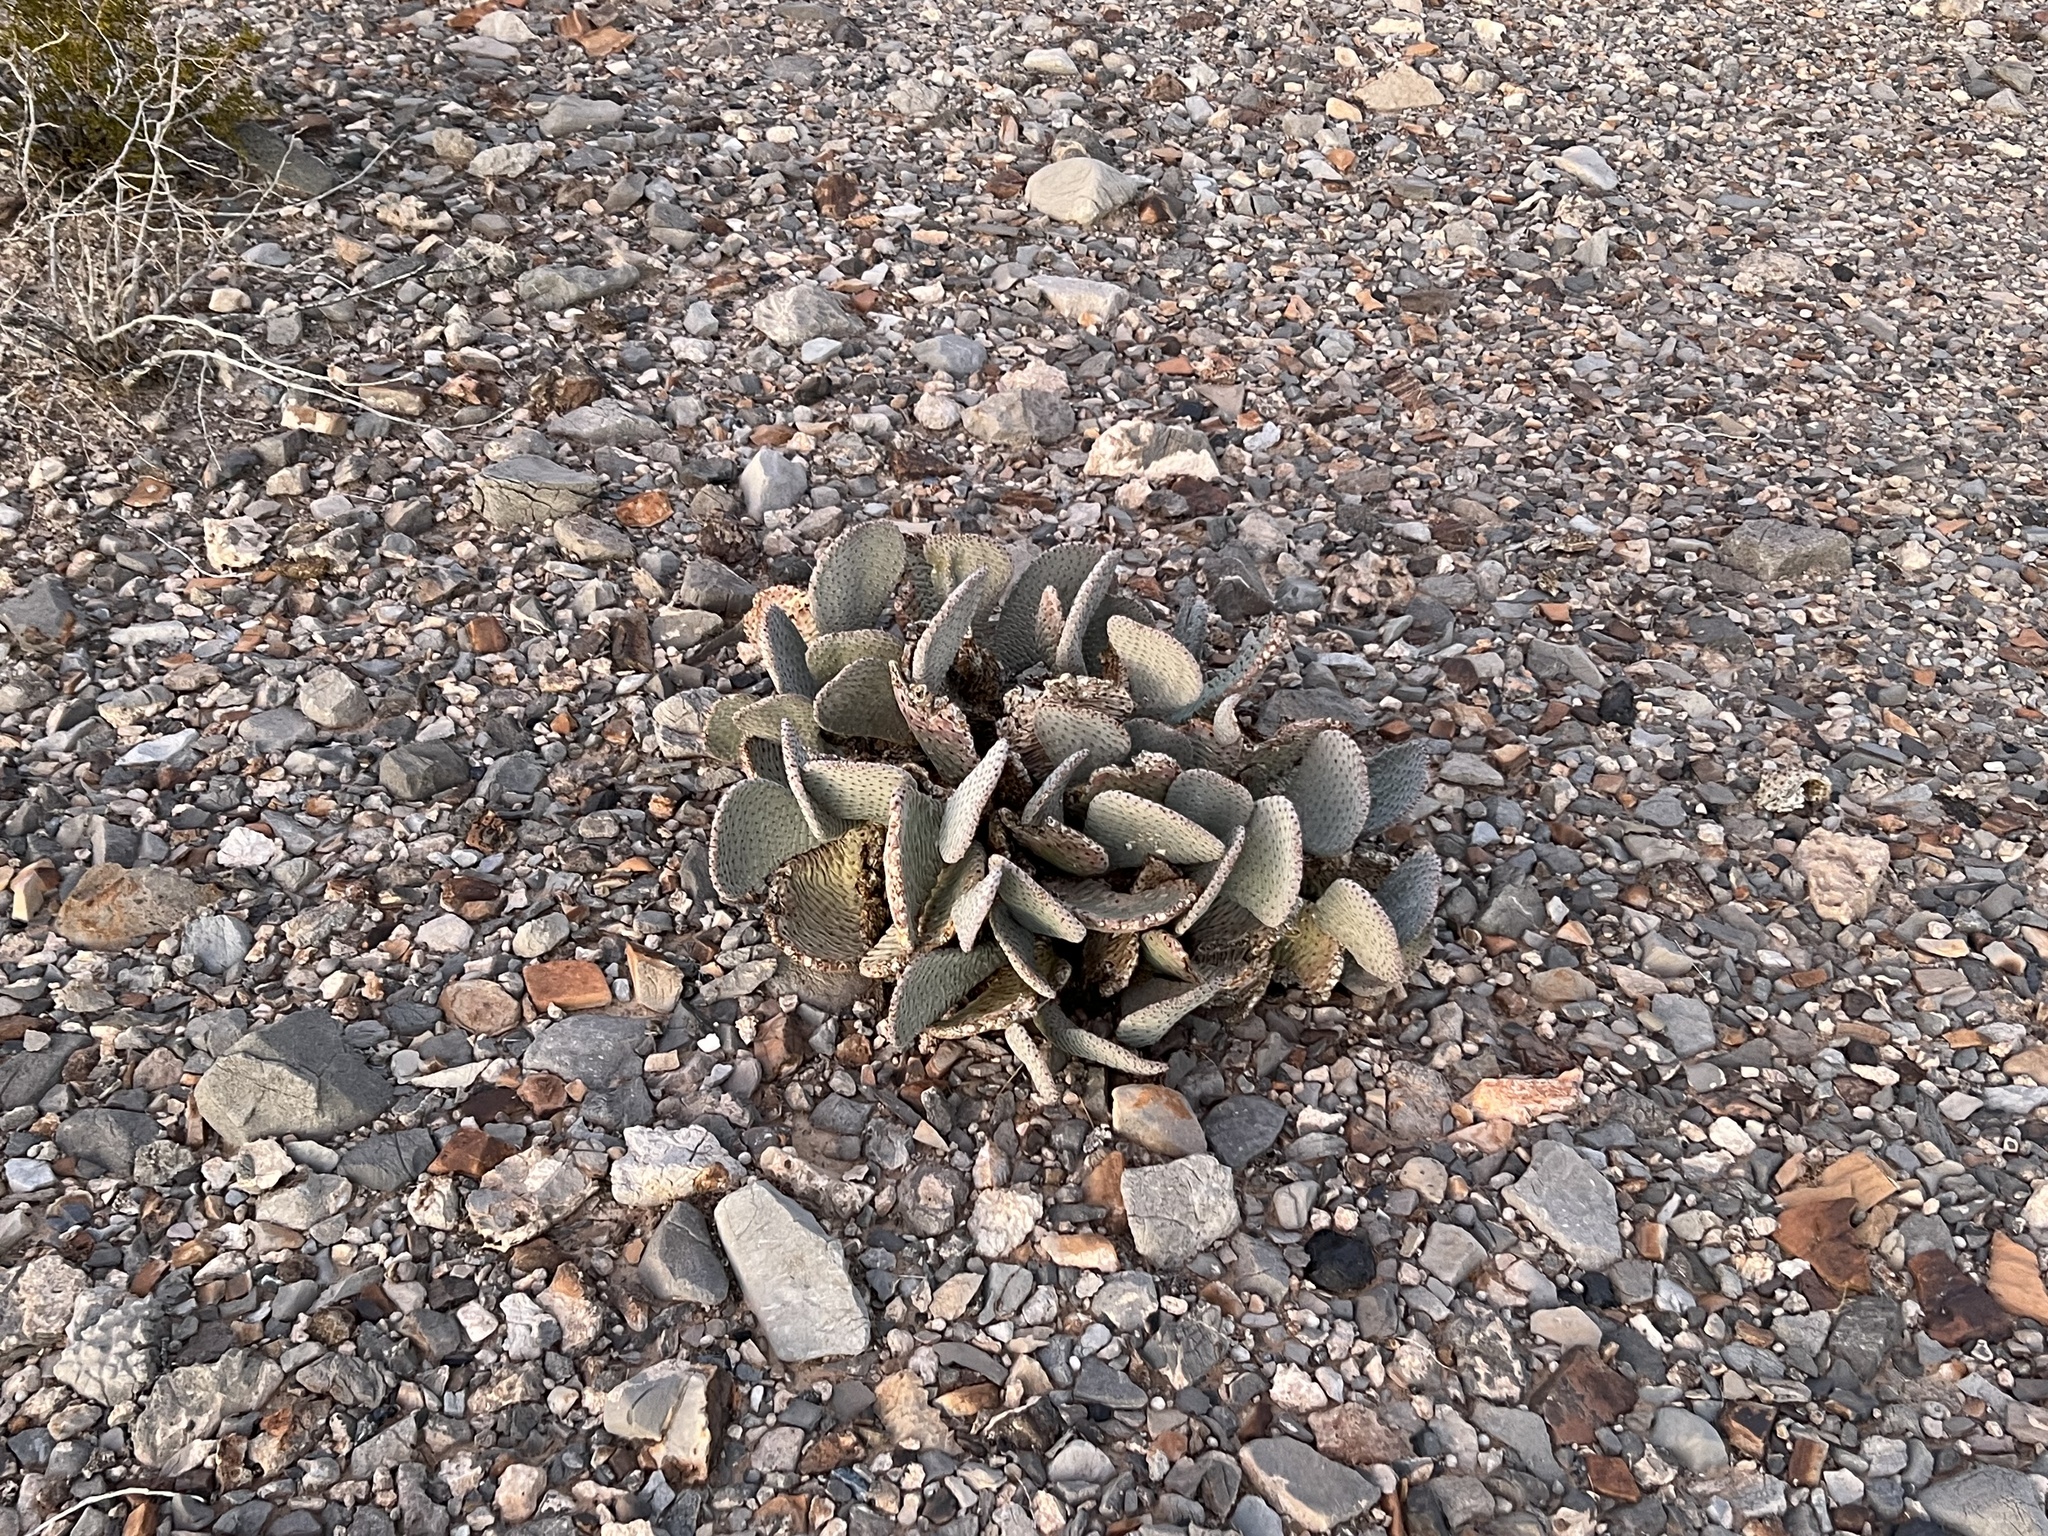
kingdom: Plantae
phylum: Tracheophyta
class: Magnoliopsida
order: Caryophyllales
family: Cactaceae
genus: Opuntia
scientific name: Opuntia basilaris
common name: Beavertail prickly-pear
